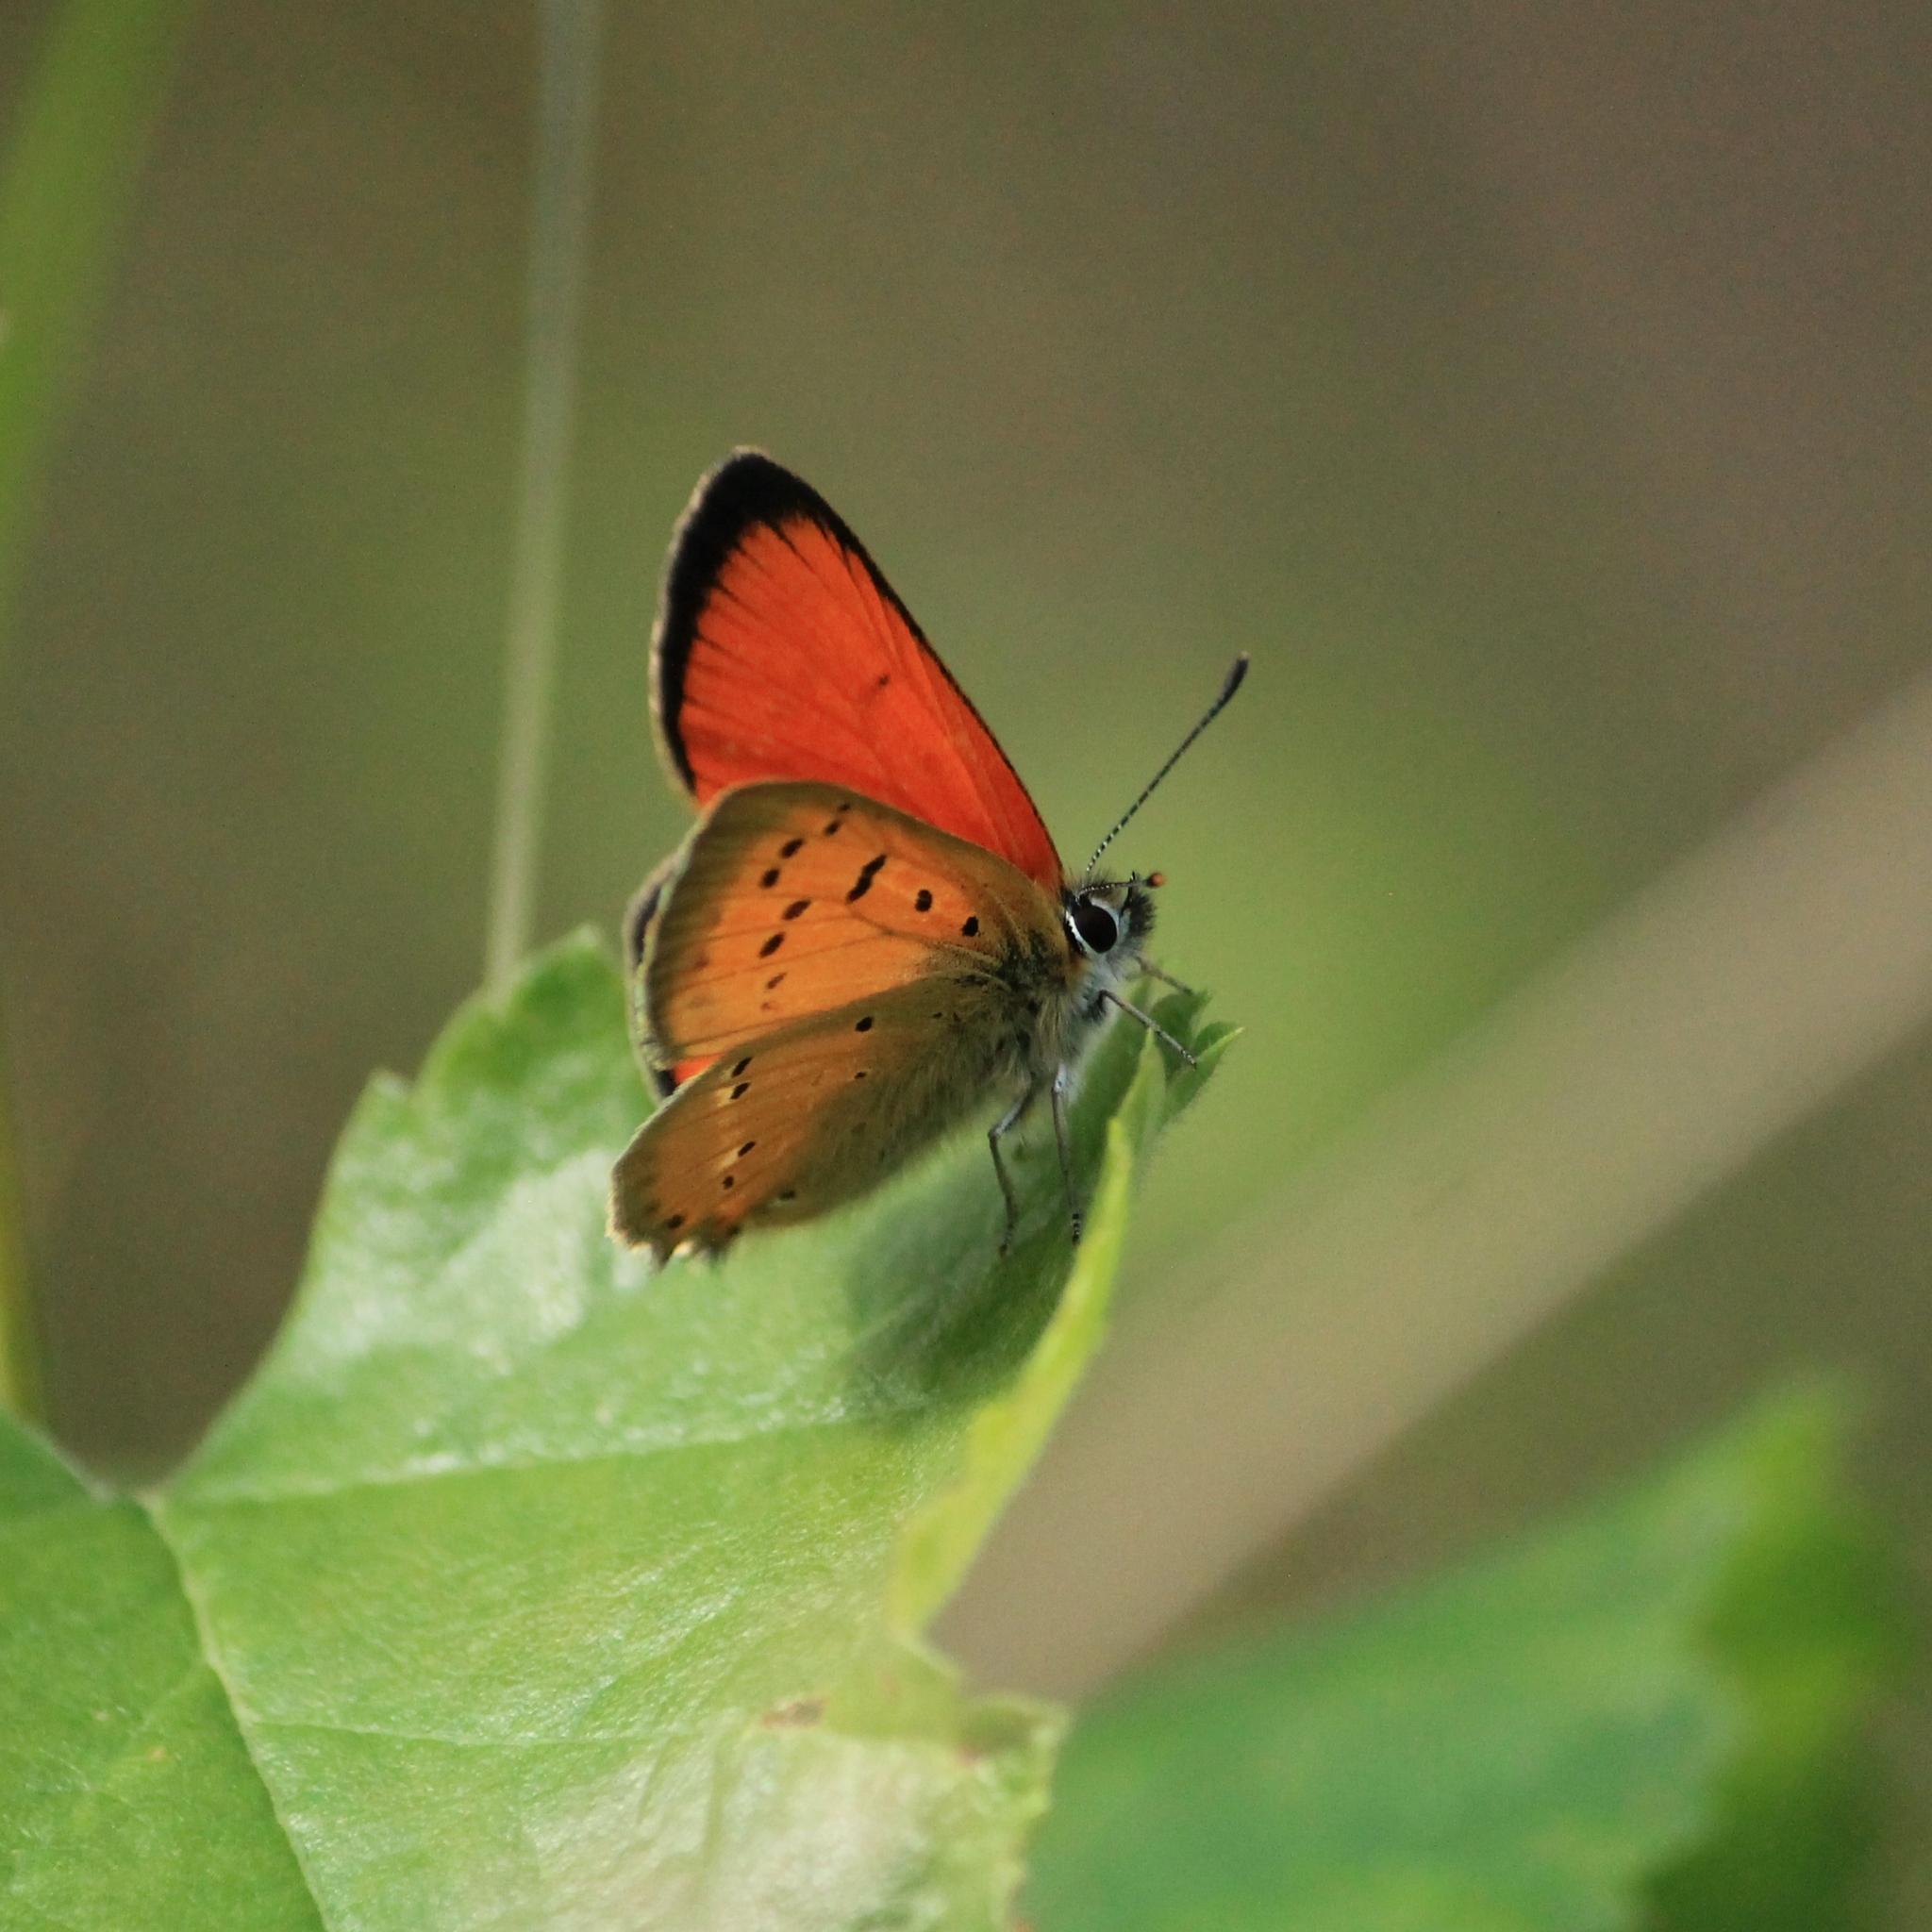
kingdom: Animalia
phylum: Arthropoda
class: Insecta
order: Lepidoptera
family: Lycaenidae
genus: Lycaena
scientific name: Lycaena virgaureae
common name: Scarce copper
